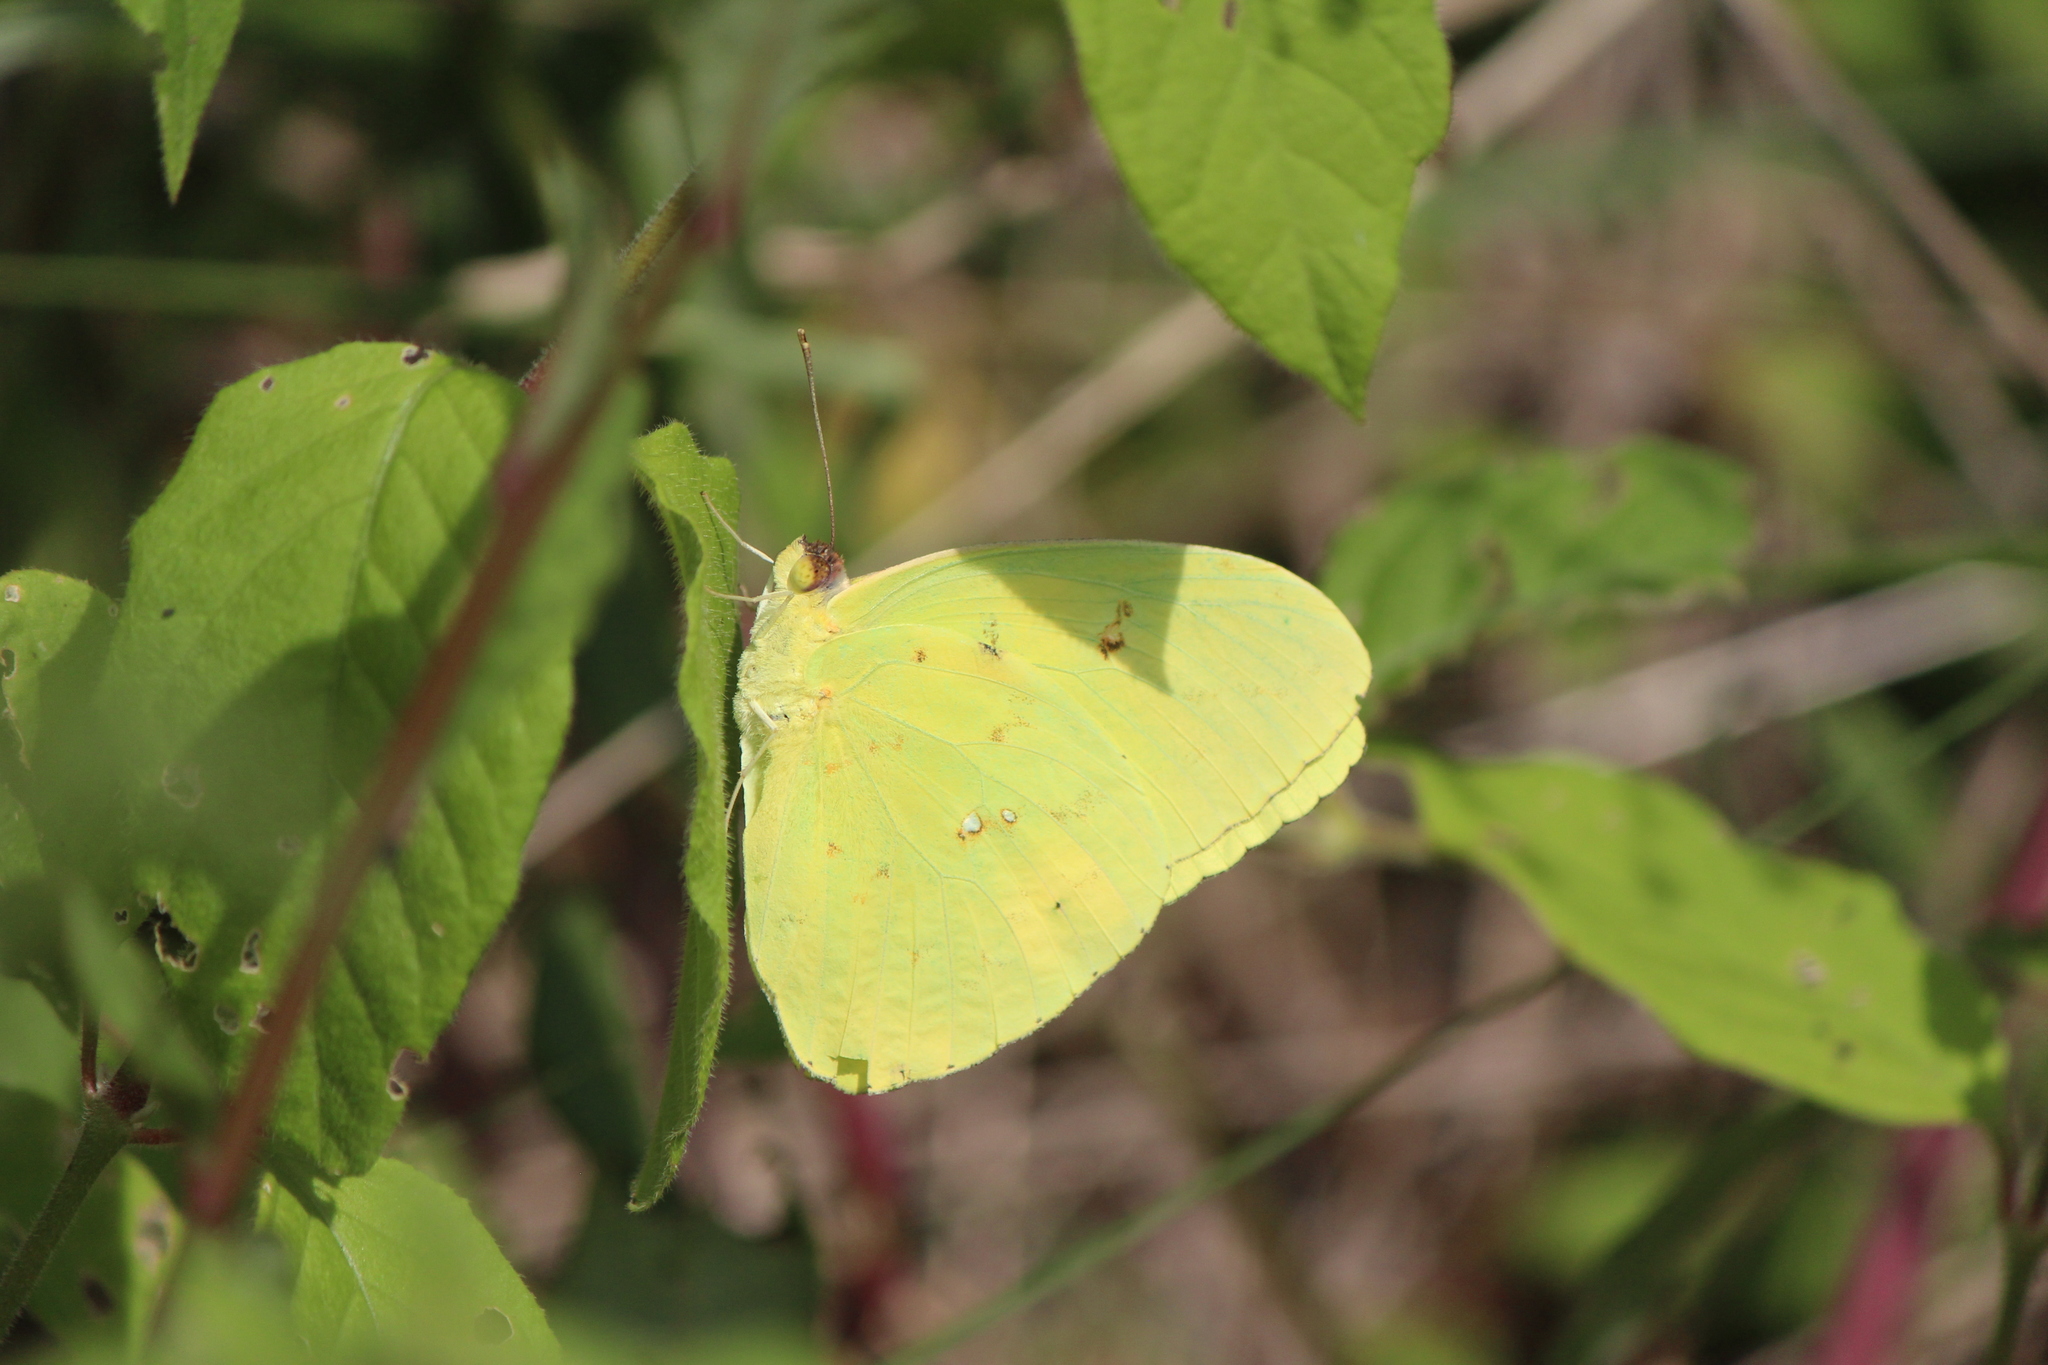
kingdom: Animalia
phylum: Arthropoda
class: Insecta
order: Lepidoptera
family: Pieridae
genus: Phoebis
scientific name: Phoebis marcellina
